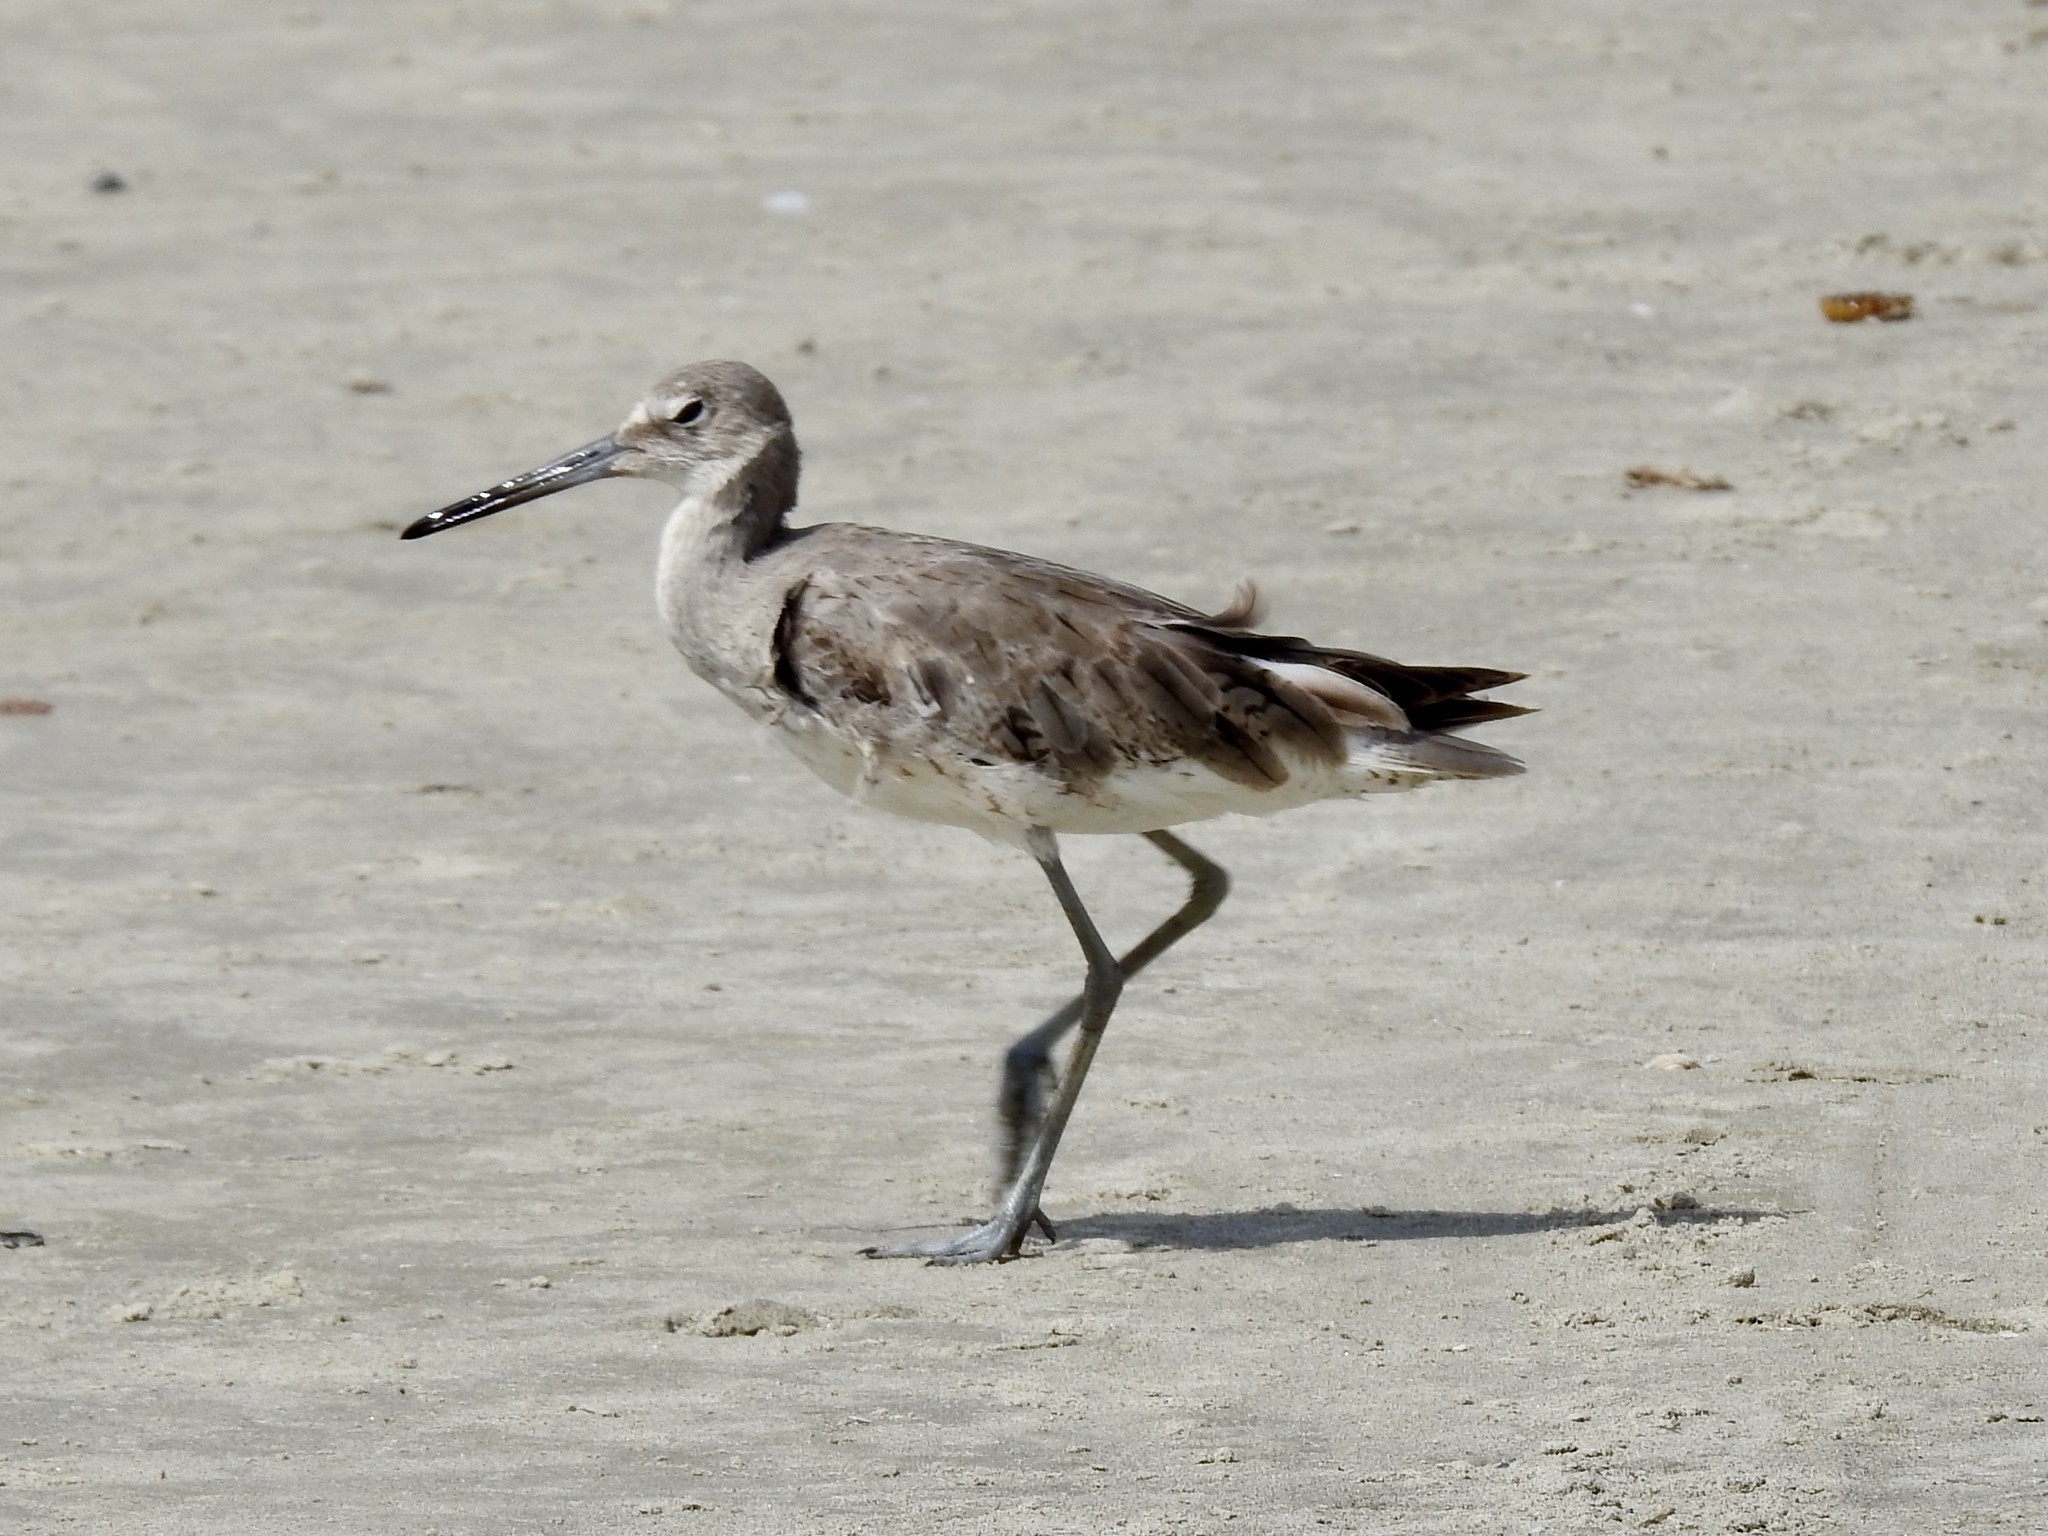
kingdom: Animalia
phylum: Chordata
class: Aves
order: Charadriiformes
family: Scolopacidae
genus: Tringa
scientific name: Tringa semipalmata
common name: Willet
